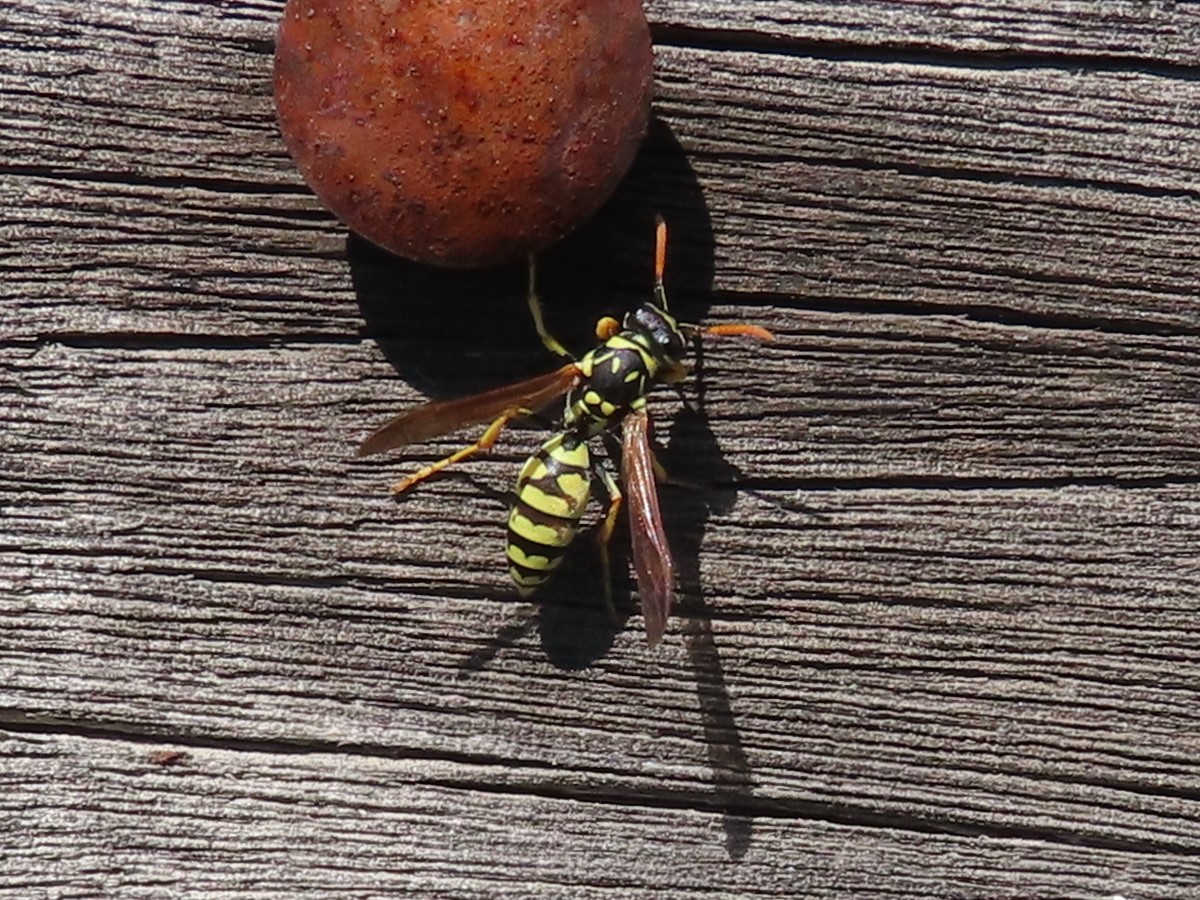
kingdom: Animalia
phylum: Arthropoda
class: Insecta
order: Hymenoptera
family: Eumenidae
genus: Polistes
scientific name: Polistes gallicus
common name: Paper wasp
